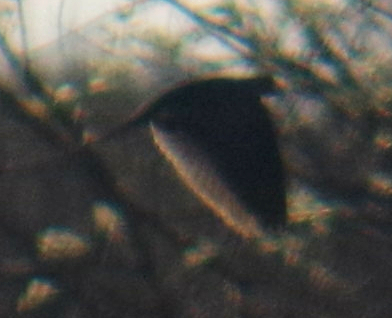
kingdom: Animalia
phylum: Chordata
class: Aves
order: Columbiformes
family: Columbidae
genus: Zenaida
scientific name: Zenaida macroura
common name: Mourning dove
